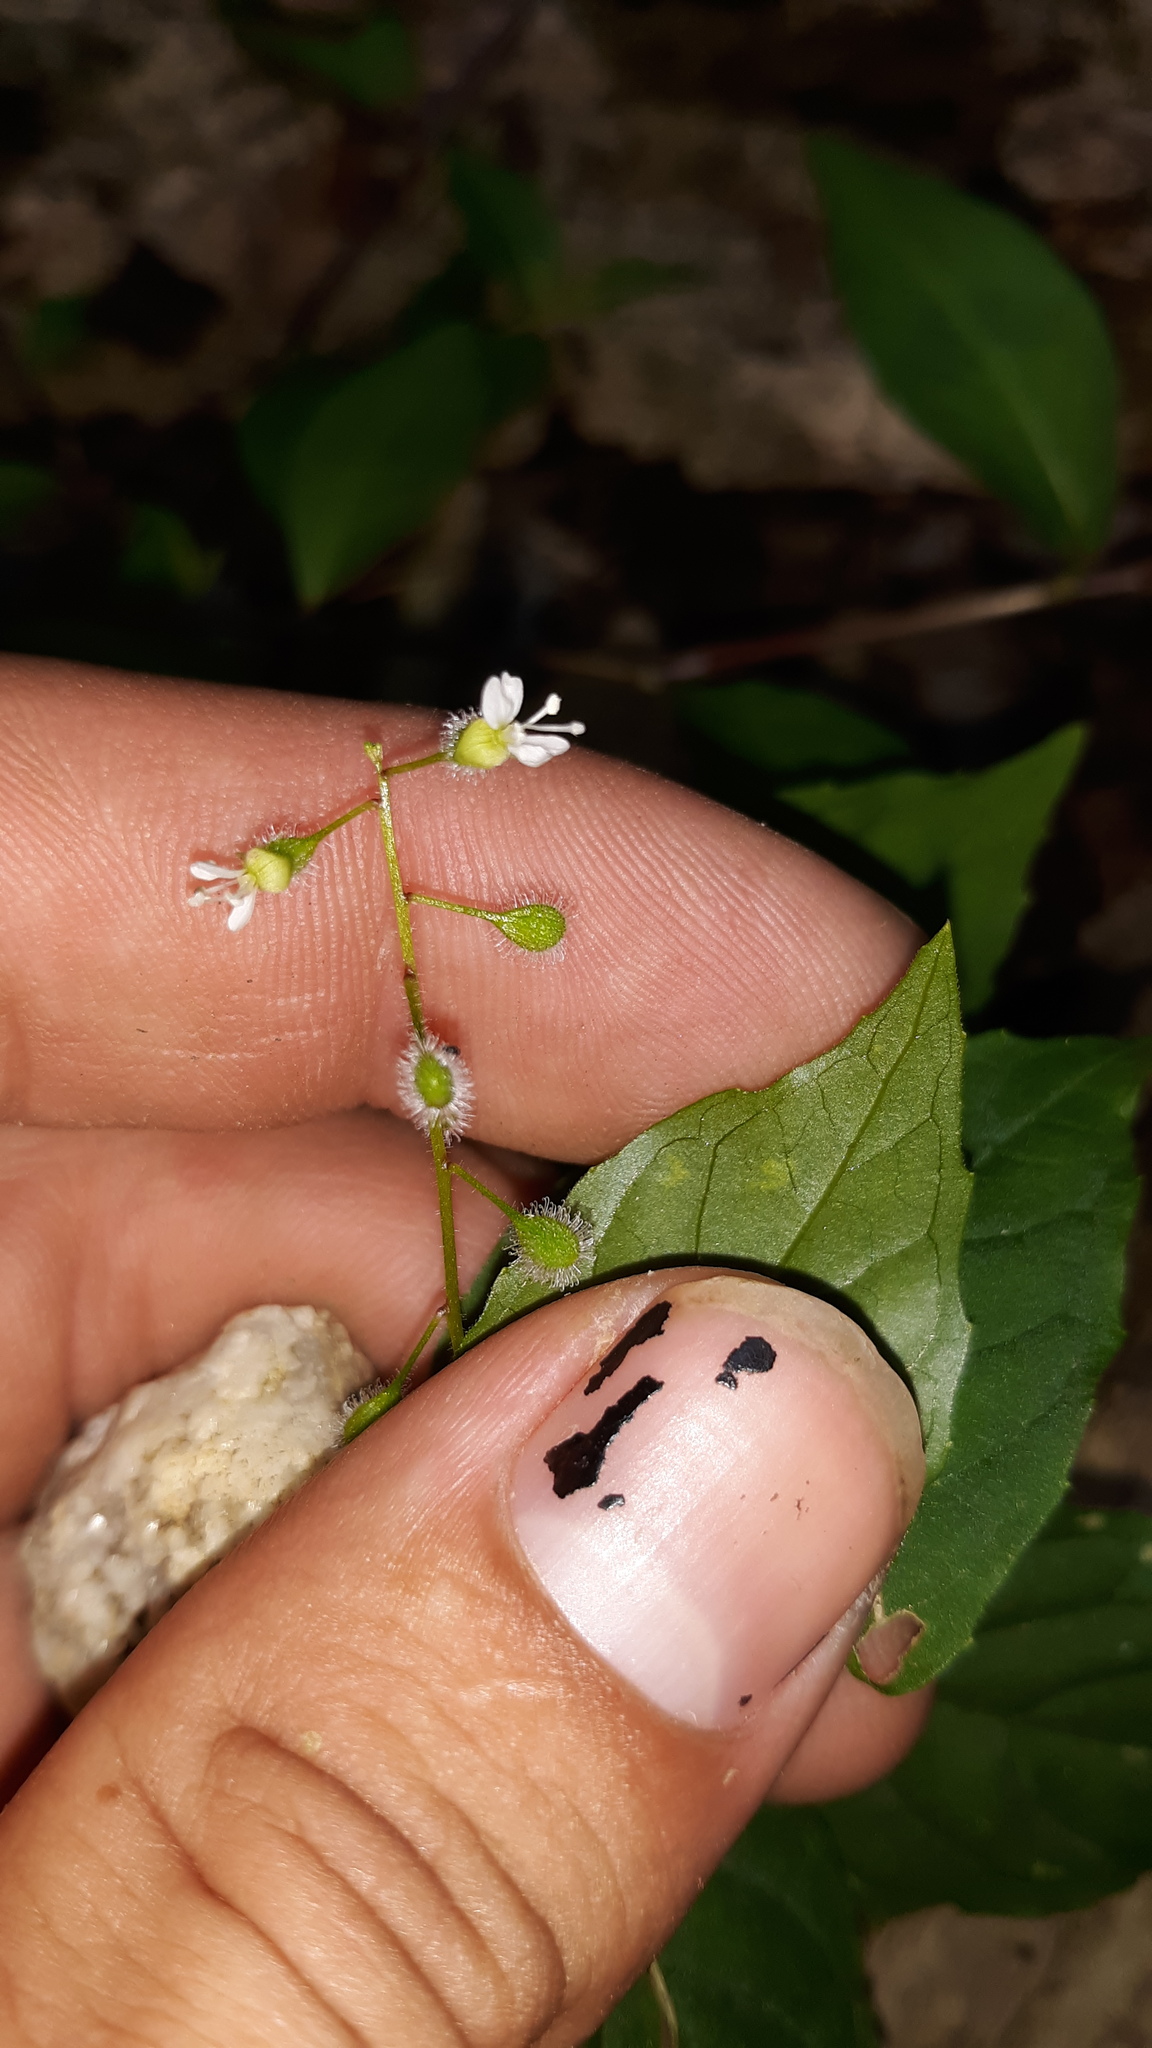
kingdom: Plantae
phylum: Tracheophyta
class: Magnoliopsida
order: Myrtales
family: Onagraceae
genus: Circaea
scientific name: Circaea canadensis
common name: Broad-leaved enchanter's nightshade
